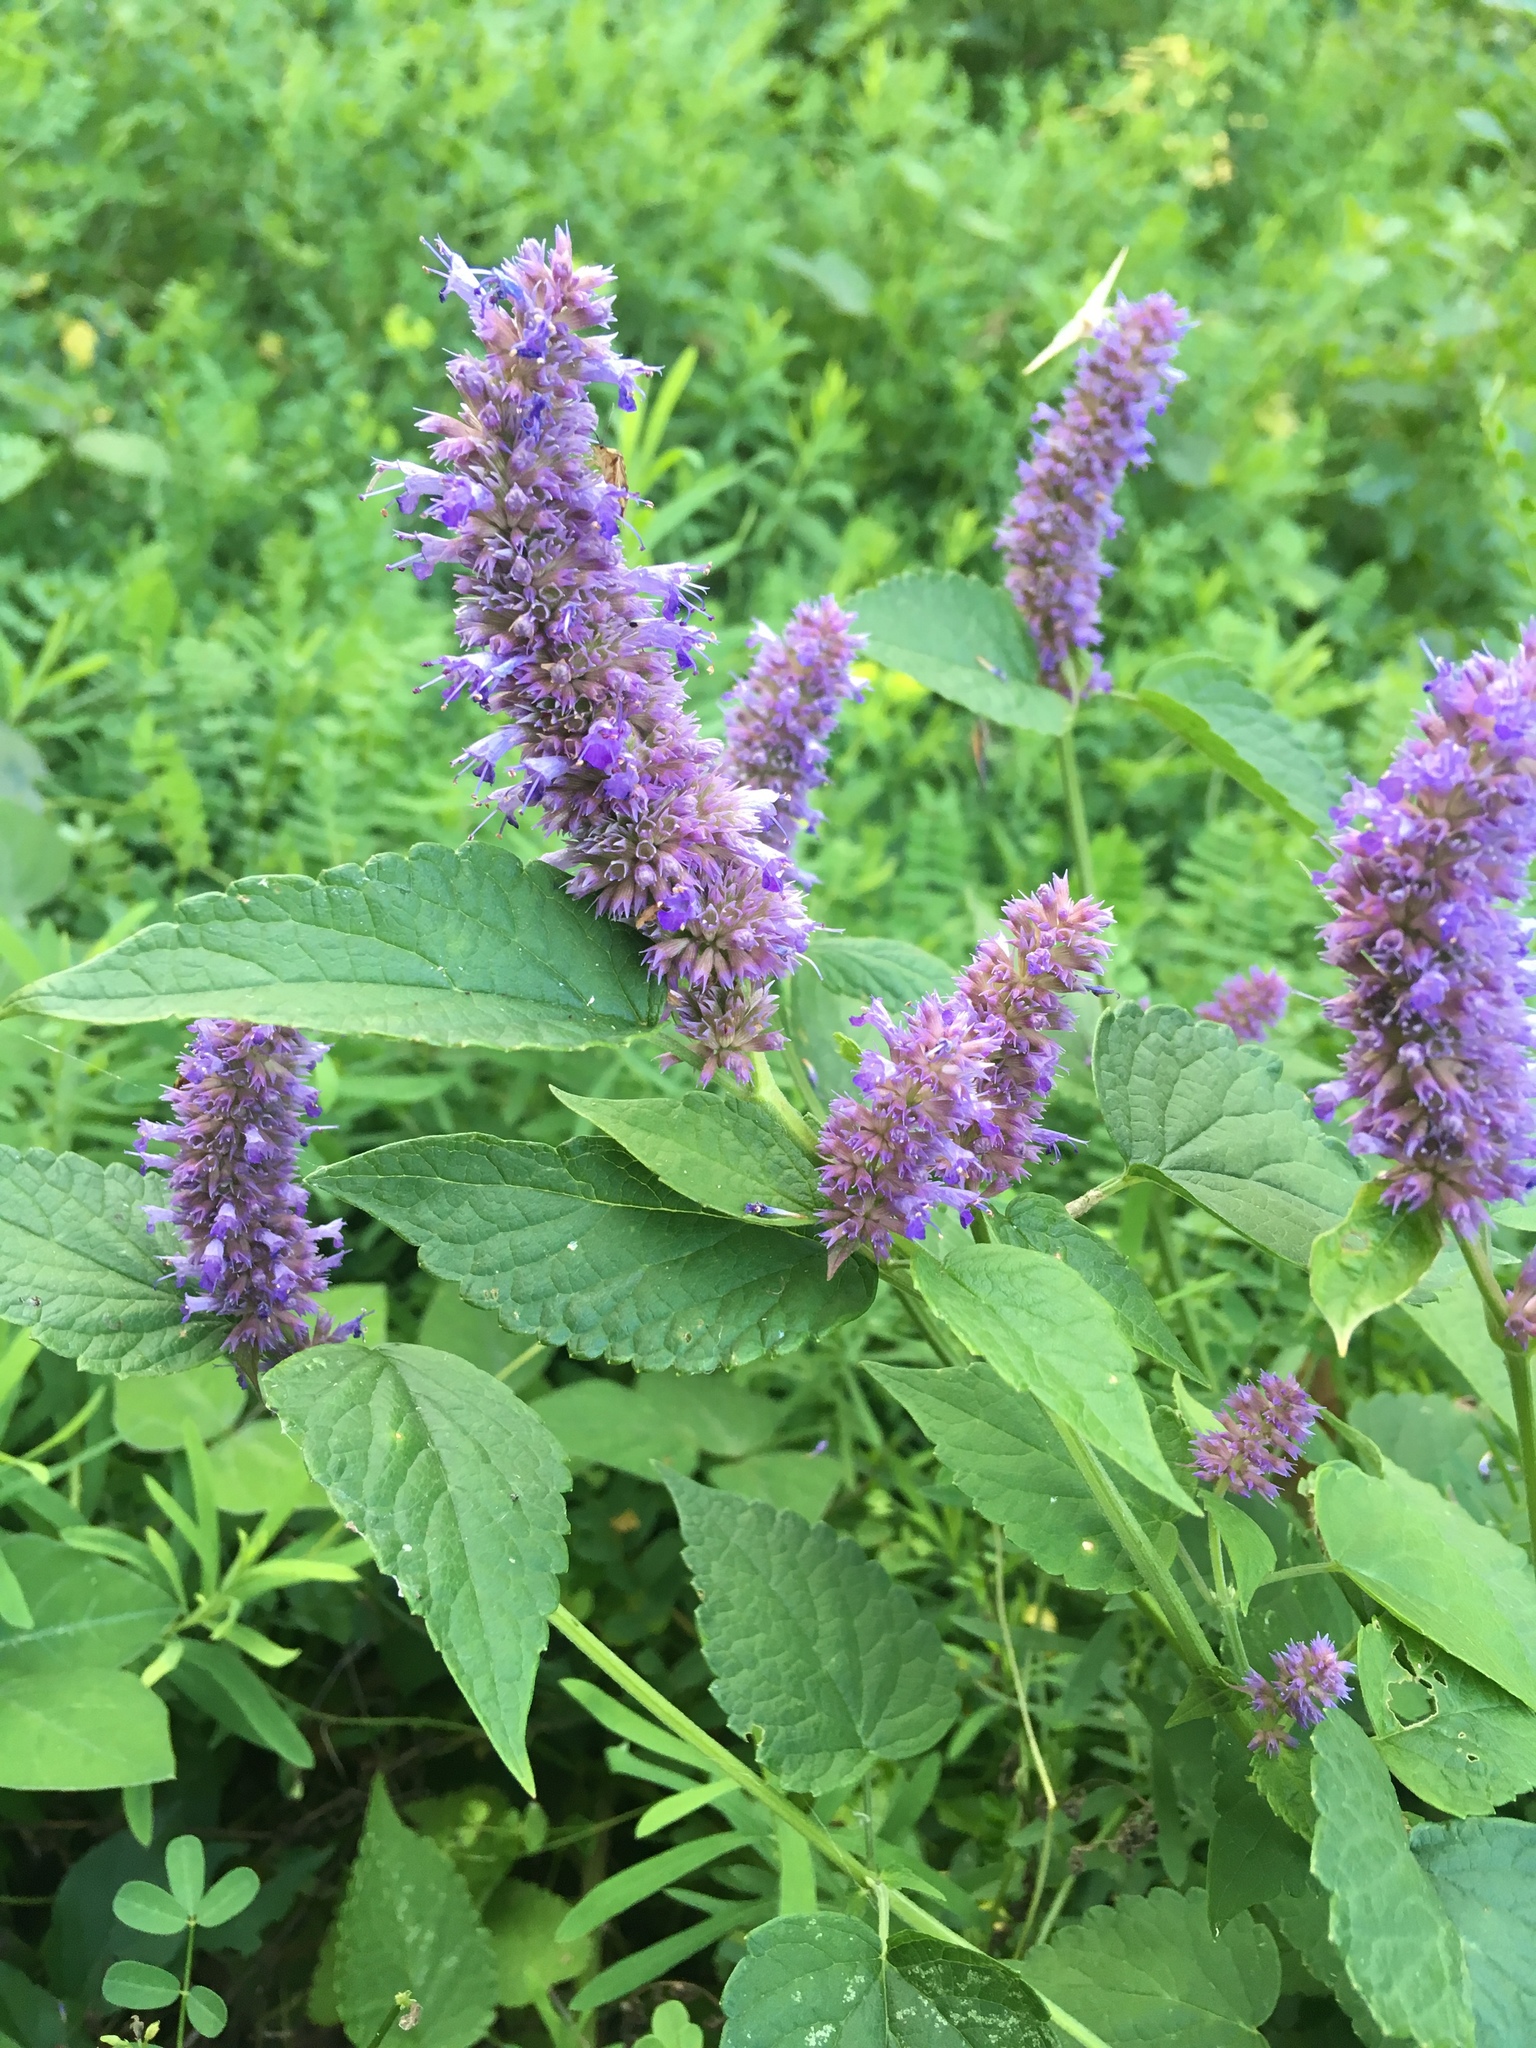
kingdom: Plantae
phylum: Tracheophyta
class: Magnoliopsida
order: Lamiales
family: Lamiaceae
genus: Agastache
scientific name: Agastache foeniculum
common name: Anise hyssop
